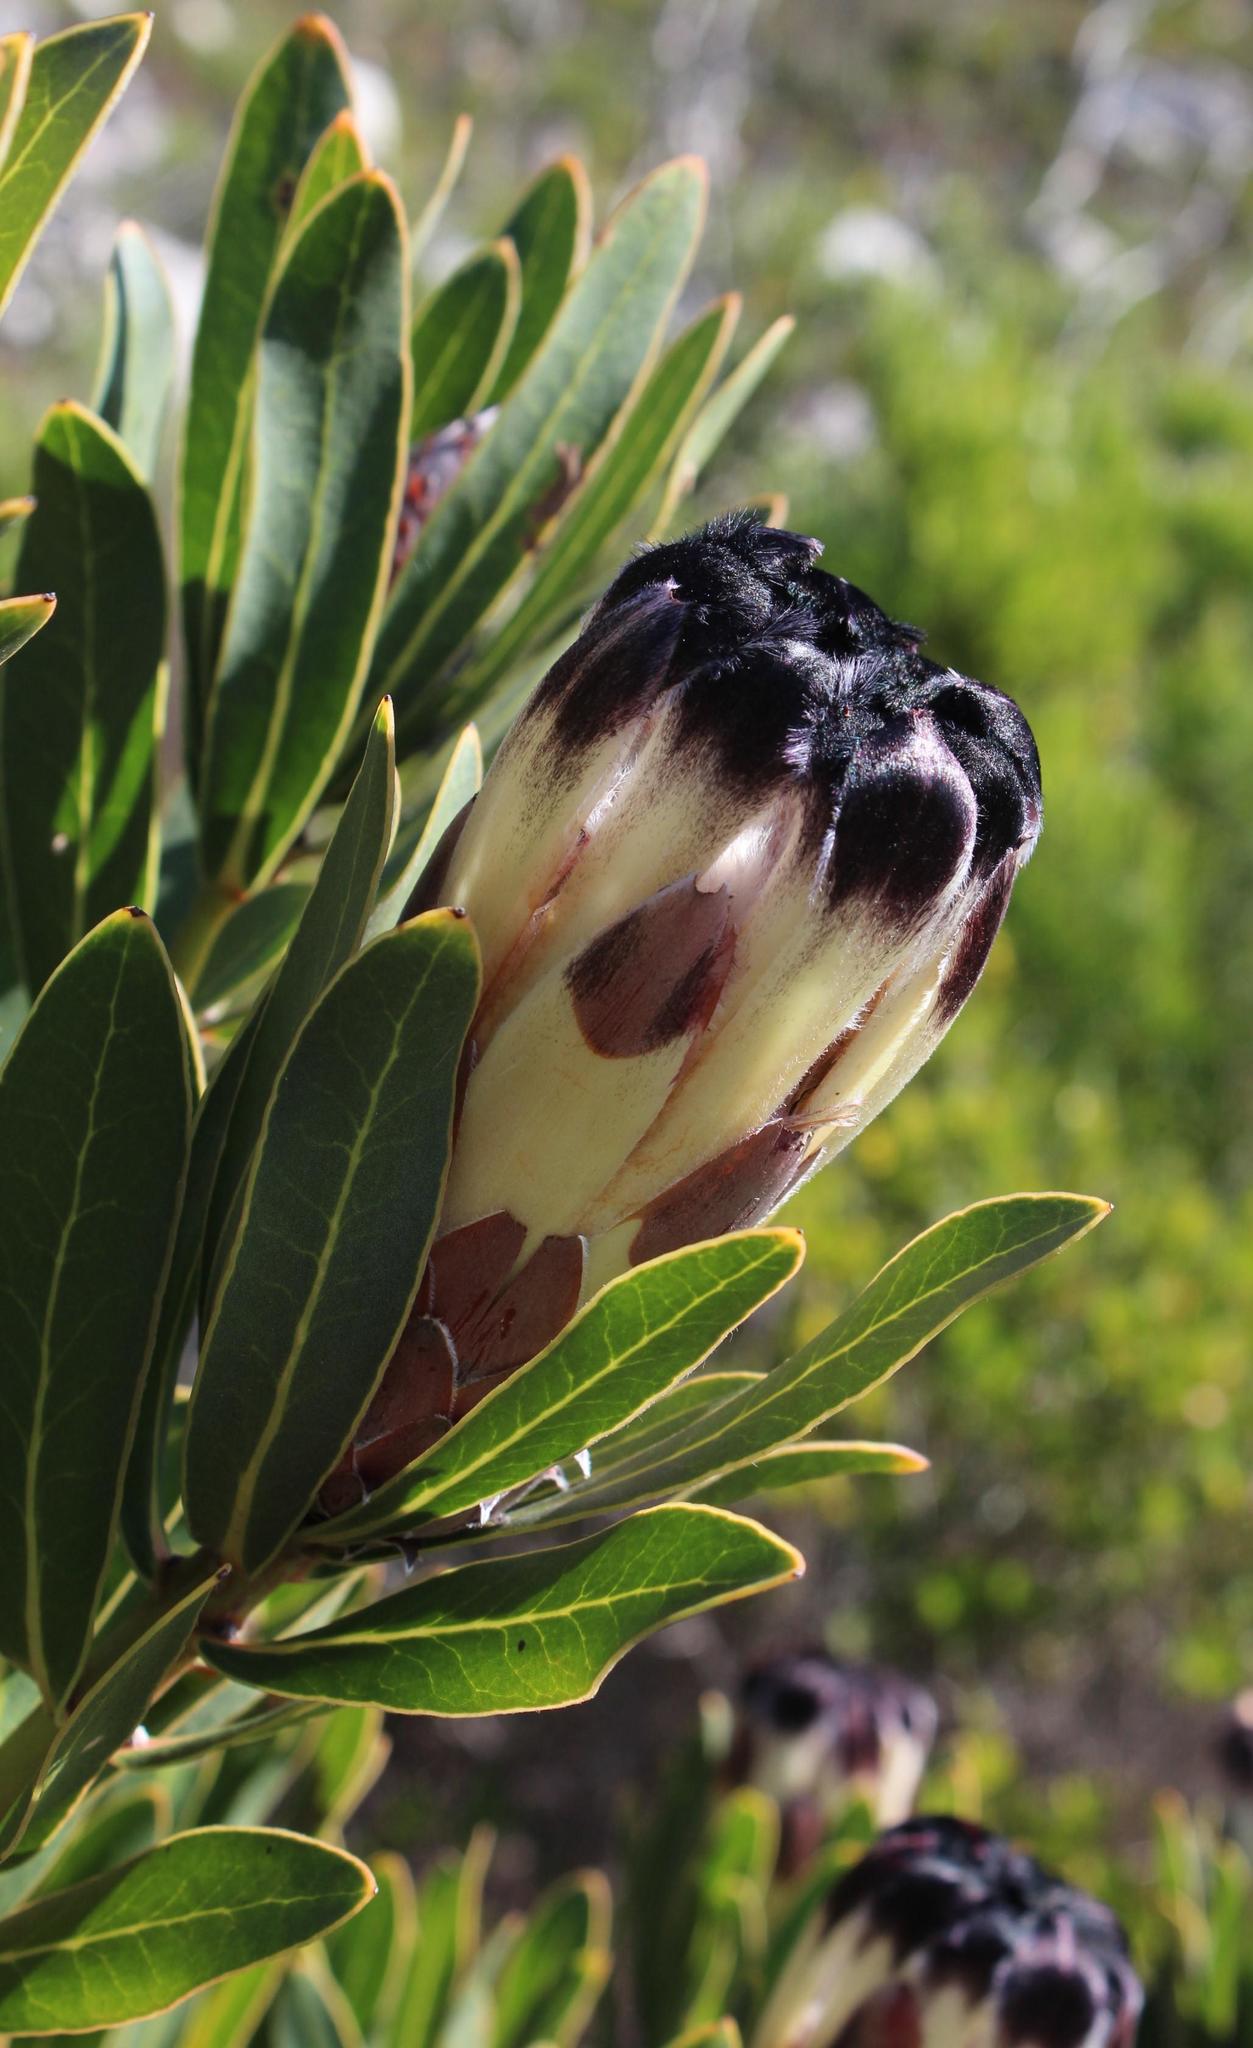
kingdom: Plantae
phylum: Tracheophyta
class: Magnoliopsida
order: Proteales
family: Proteaceae
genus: Protea
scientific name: Protea lepidocarpodendron
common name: Black-bearded protea
